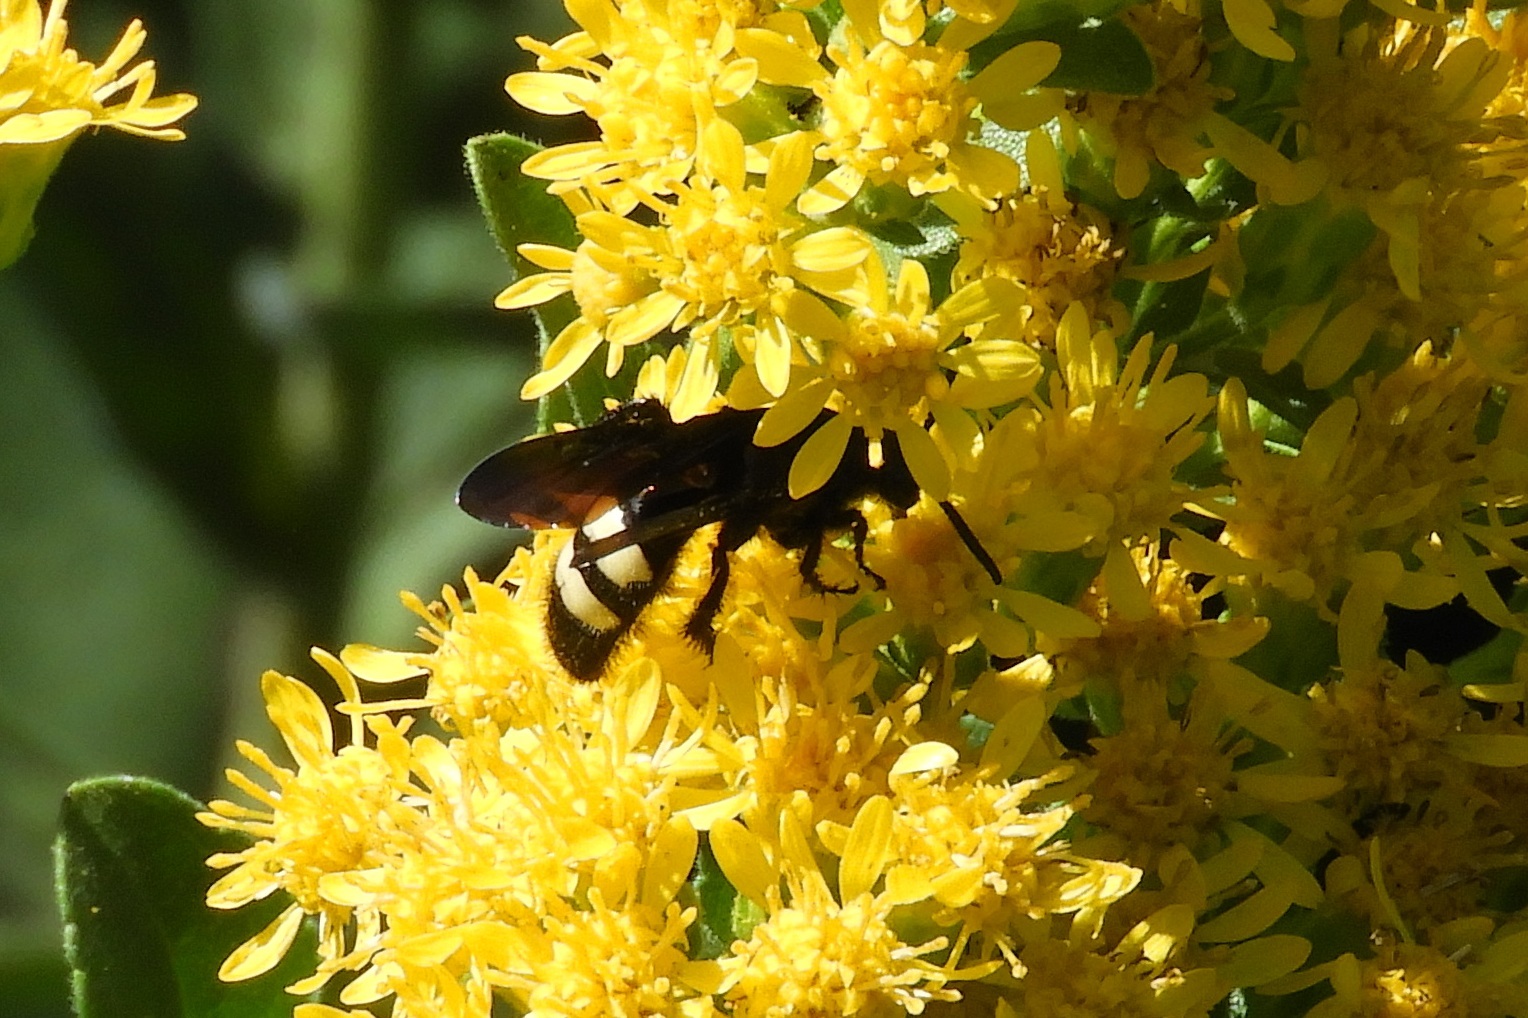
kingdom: Animalia
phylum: Arthropoda
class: Insecta
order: Hymenoptera
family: Scoliidae
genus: Scolia
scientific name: Scolia bicincta
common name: Double-banded scoliid wasp
